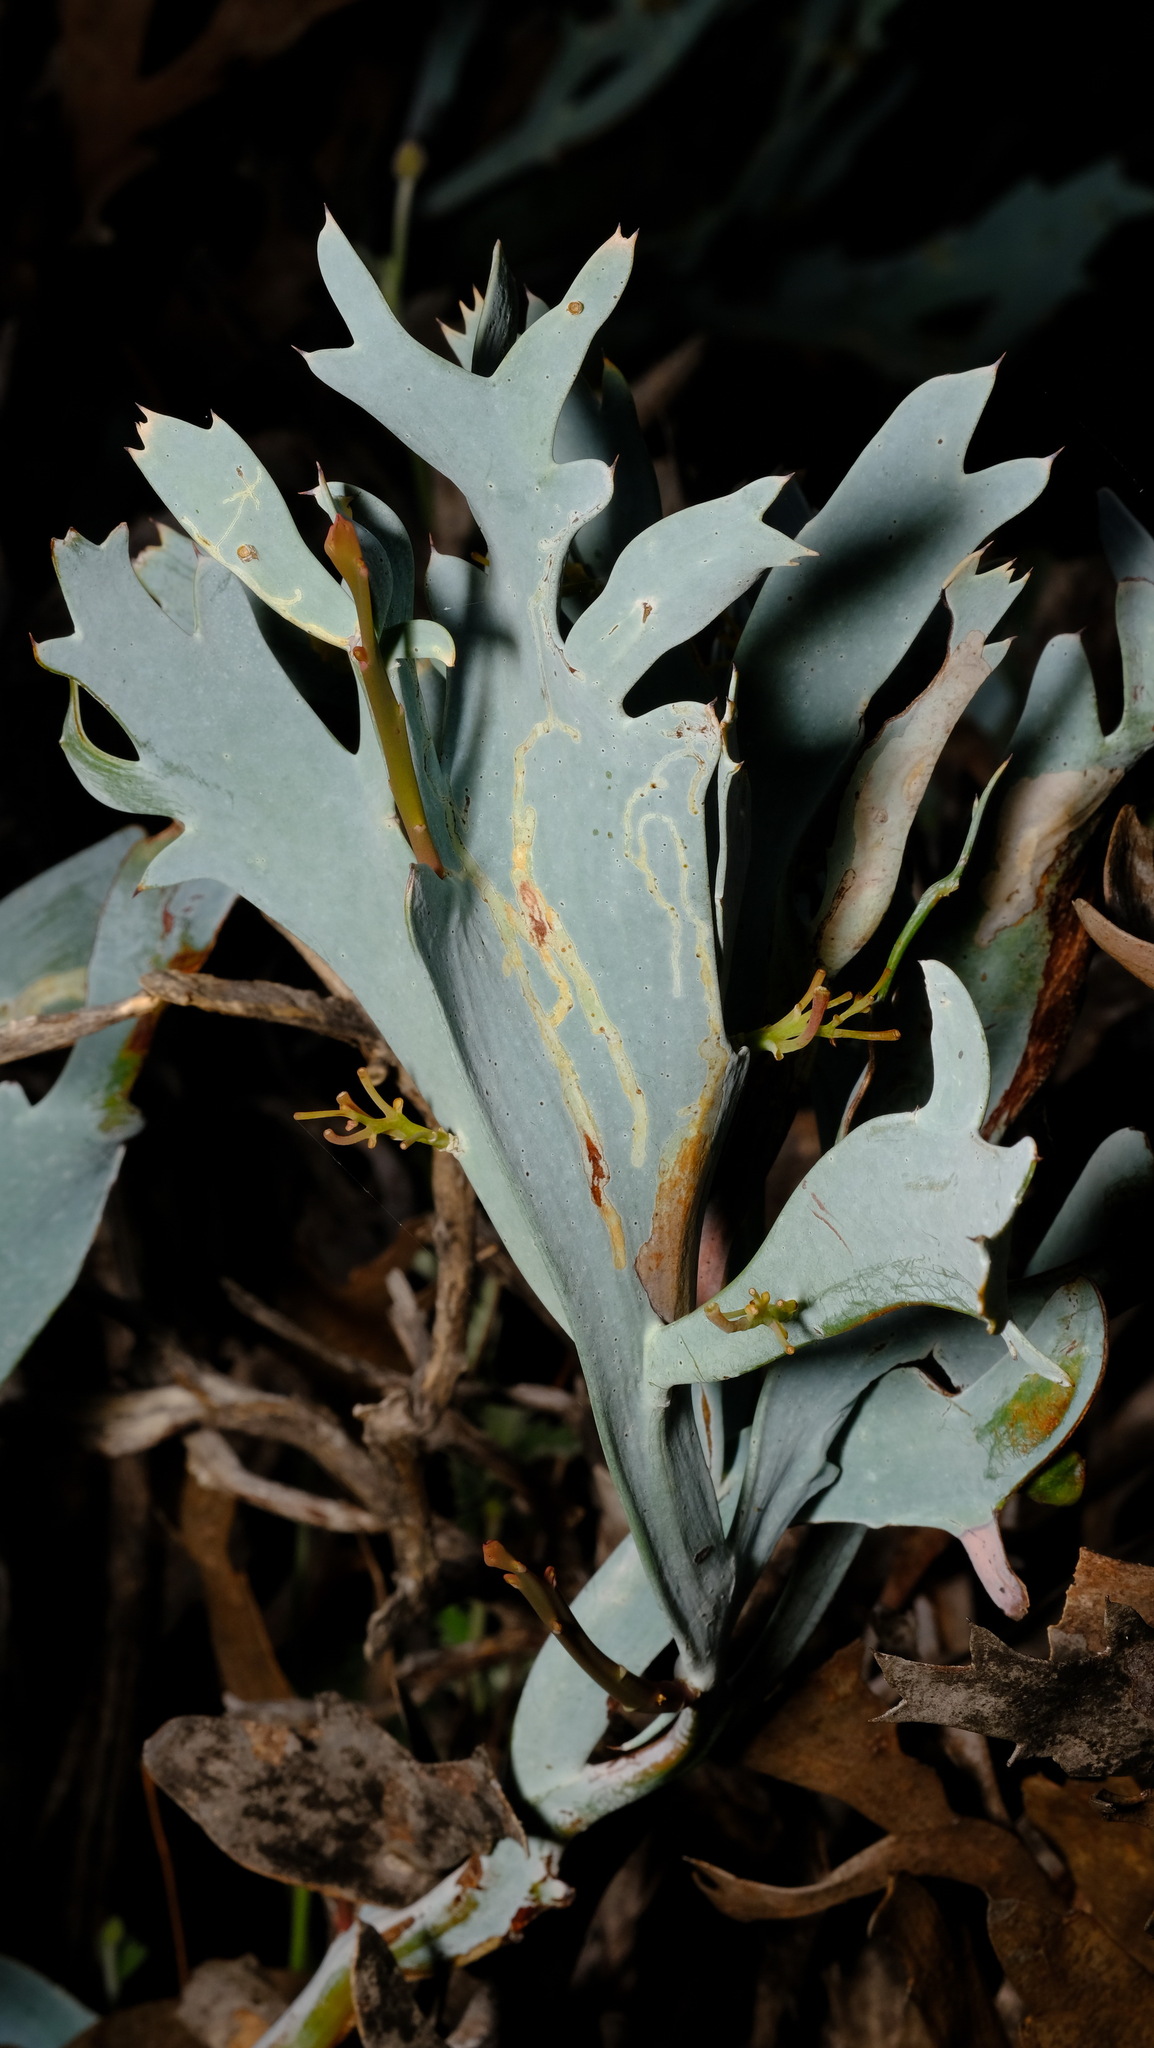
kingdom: Plantae
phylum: Tracheophyta
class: Magnoliopsida
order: Fabales
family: Fabaceae
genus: Daviesia
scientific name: Daviesia epiphyllum
